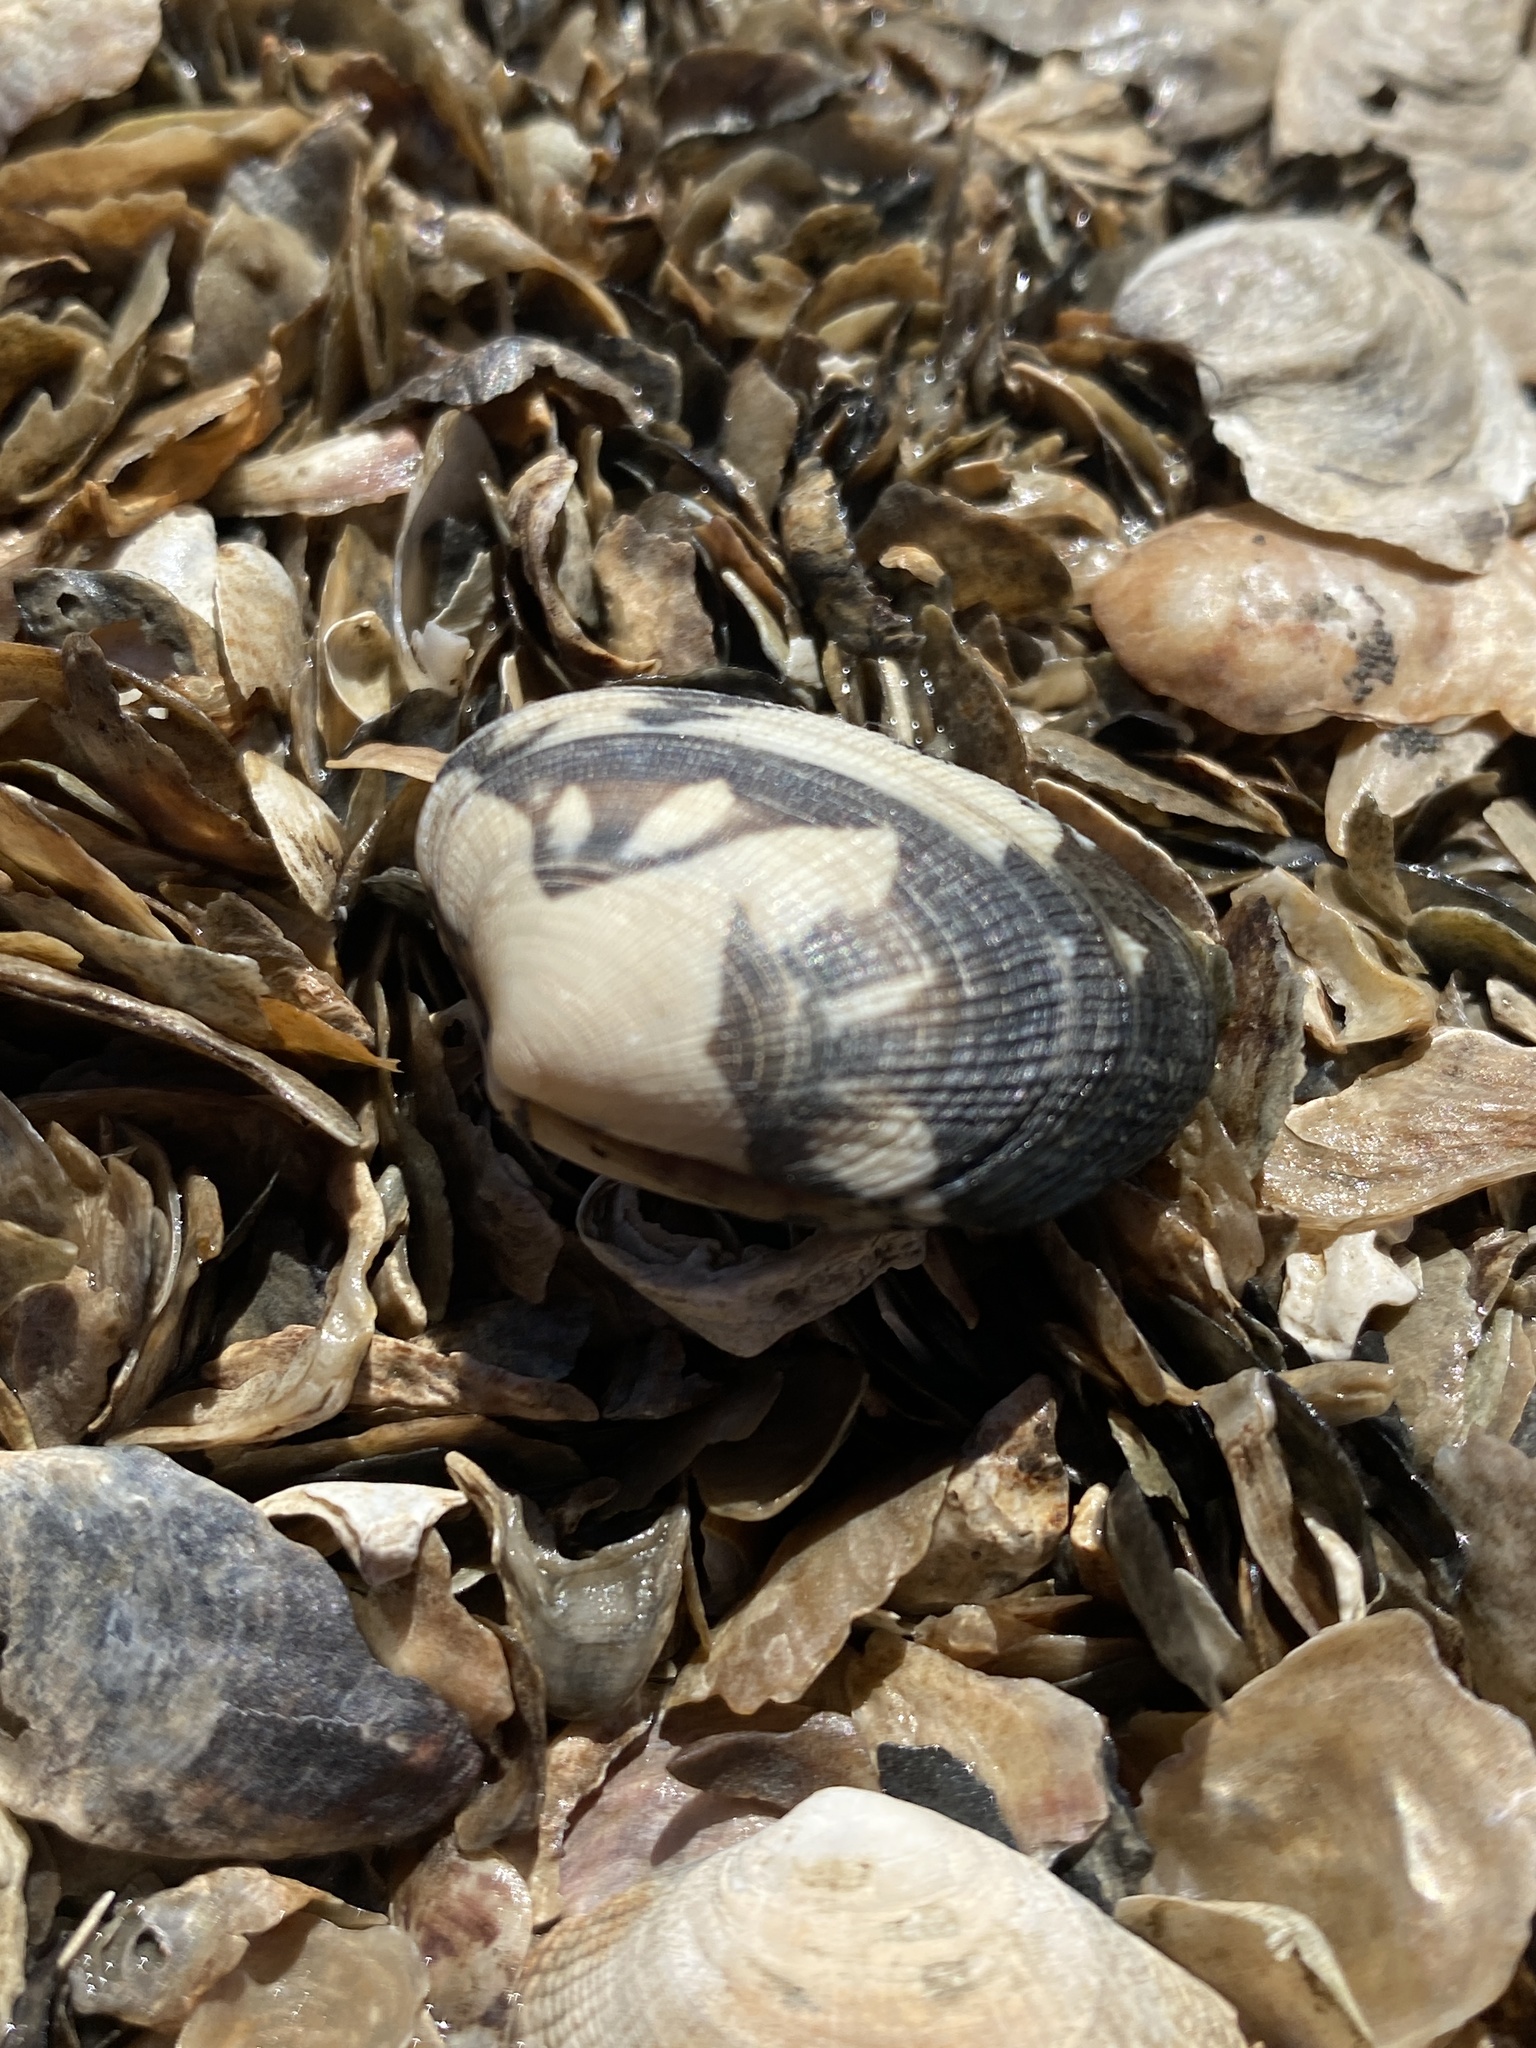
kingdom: Animalia
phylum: Mollusca
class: Bivalvia
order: Venerida
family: Veneridae
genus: Ruditapes
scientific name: Ruditapes philippinarum
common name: Manila clam
